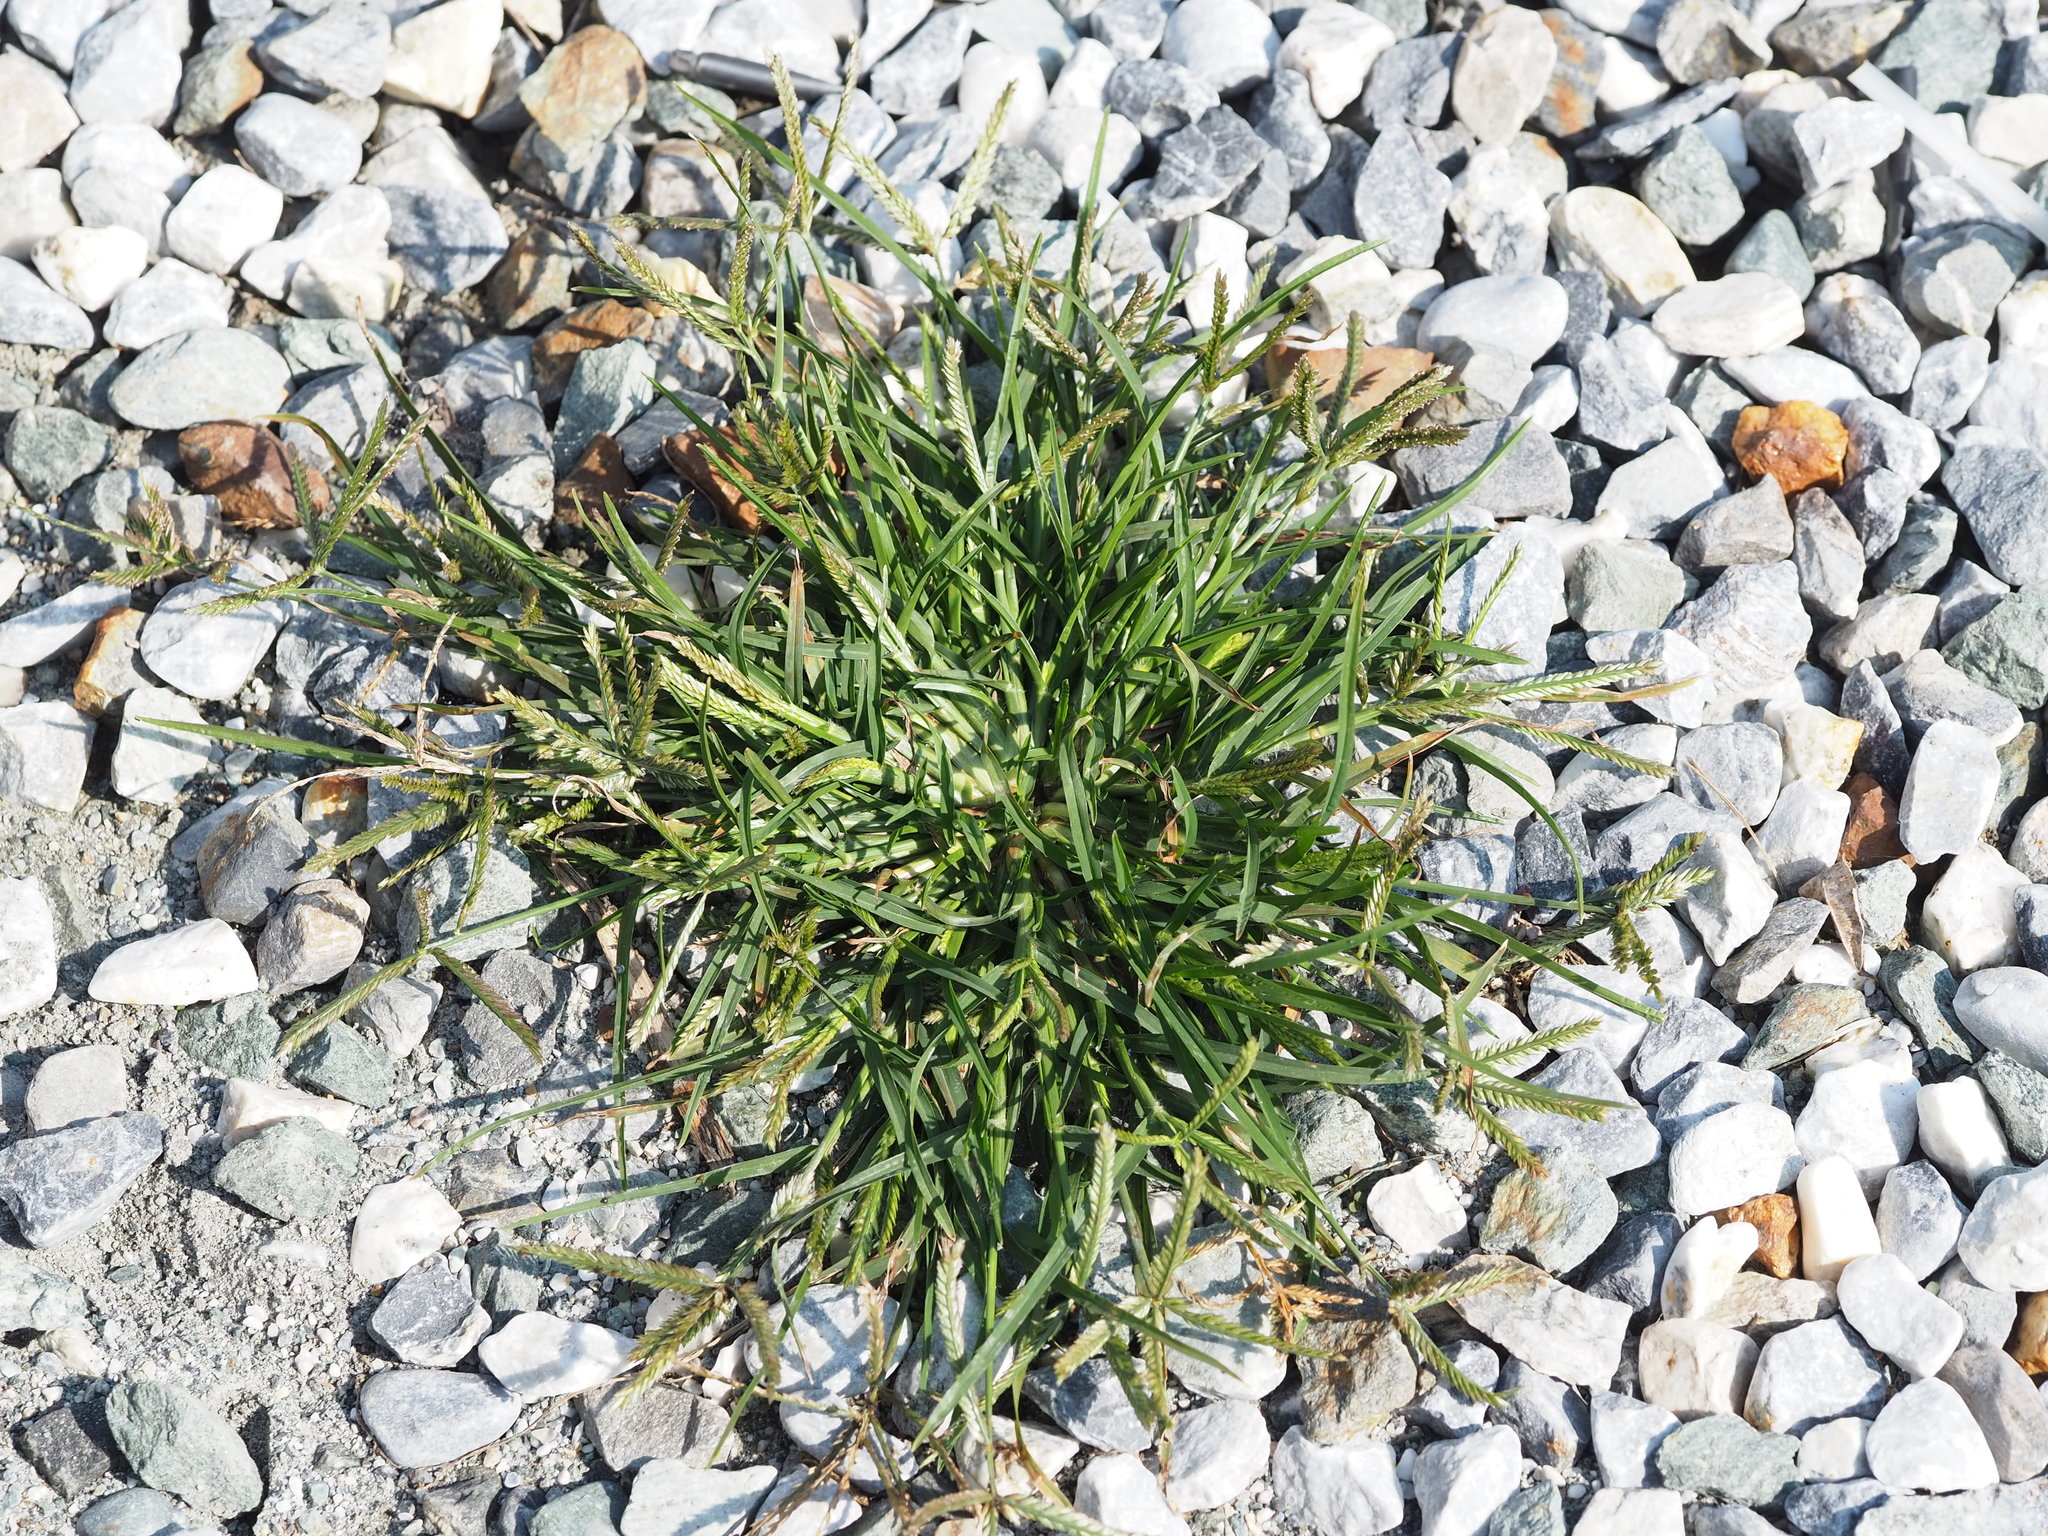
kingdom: Plantae
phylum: Tracheophyta
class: Liliopsida
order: Poales
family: Poaceae
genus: Eleusine
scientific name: Eleusine indica
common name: Yard-grass
